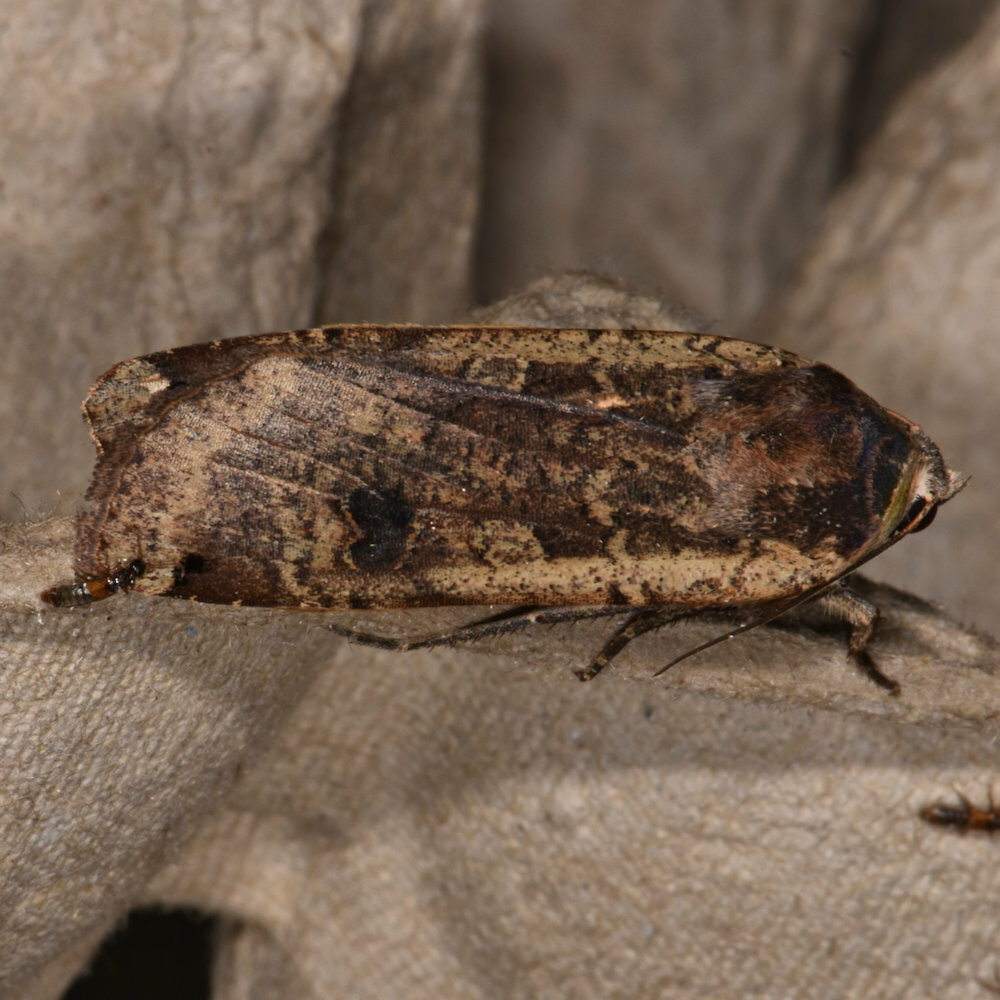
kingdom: Animalia
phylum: Arthropoda
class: Insecta
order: Lepidoptera
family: Noctuidae
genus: Noctua
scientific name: Noctua pronuba
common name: Large yellow underwing
